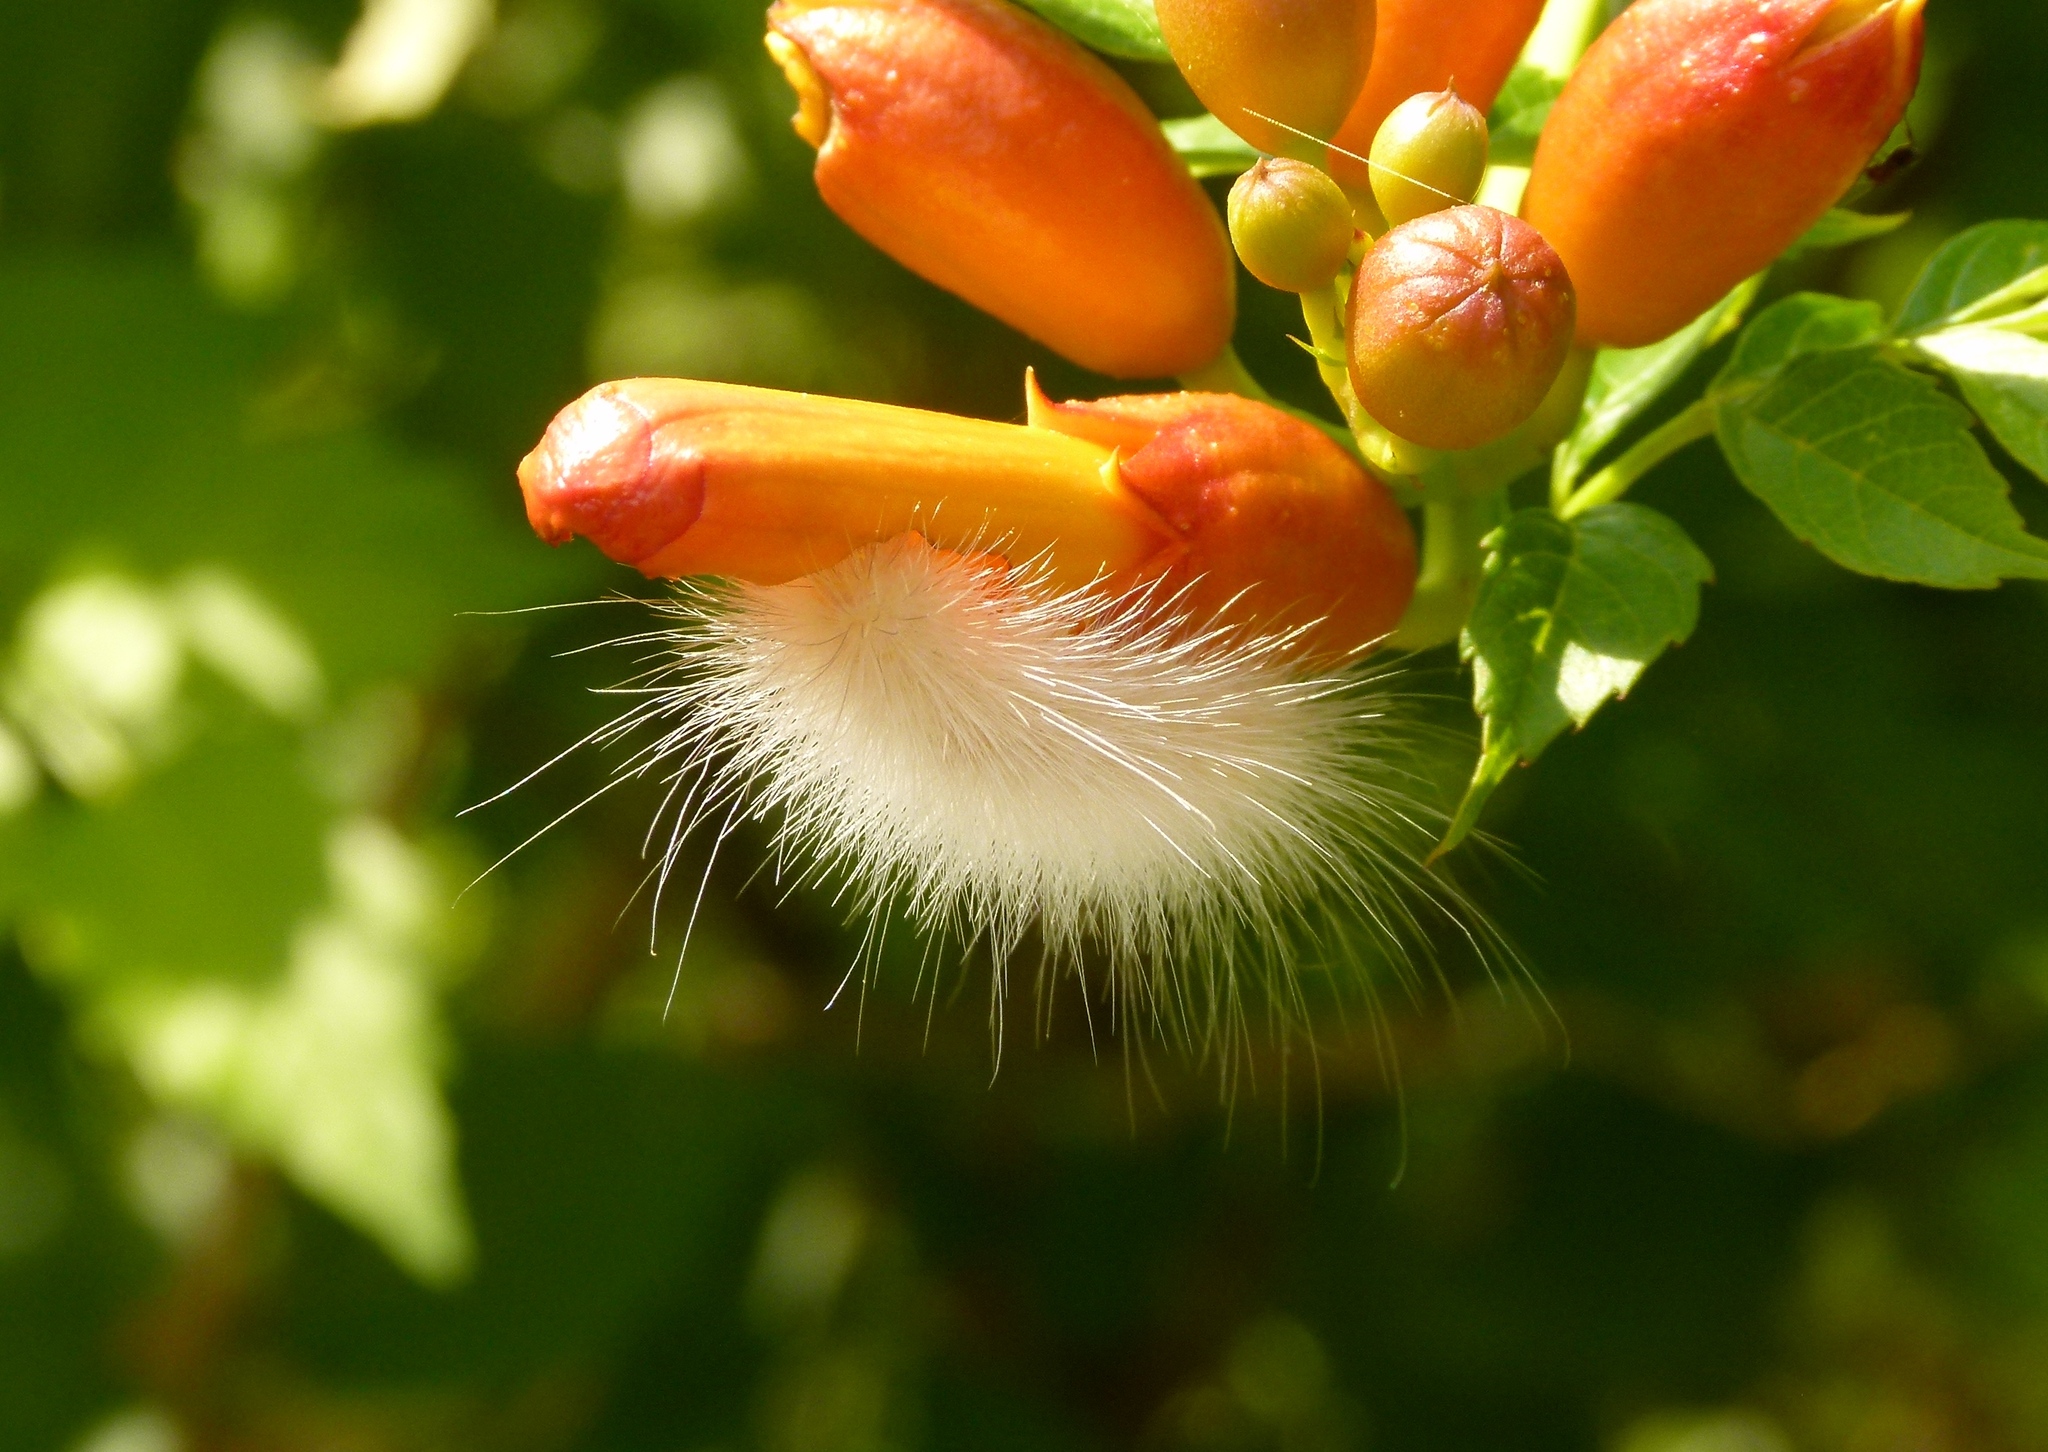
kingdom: Animalia
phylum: Arthropoda
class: Insecta
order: Lepidoptera
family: Erebidae
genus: Spilosoma
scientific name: Spilosoma virginica
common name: Virginia tiger moth
